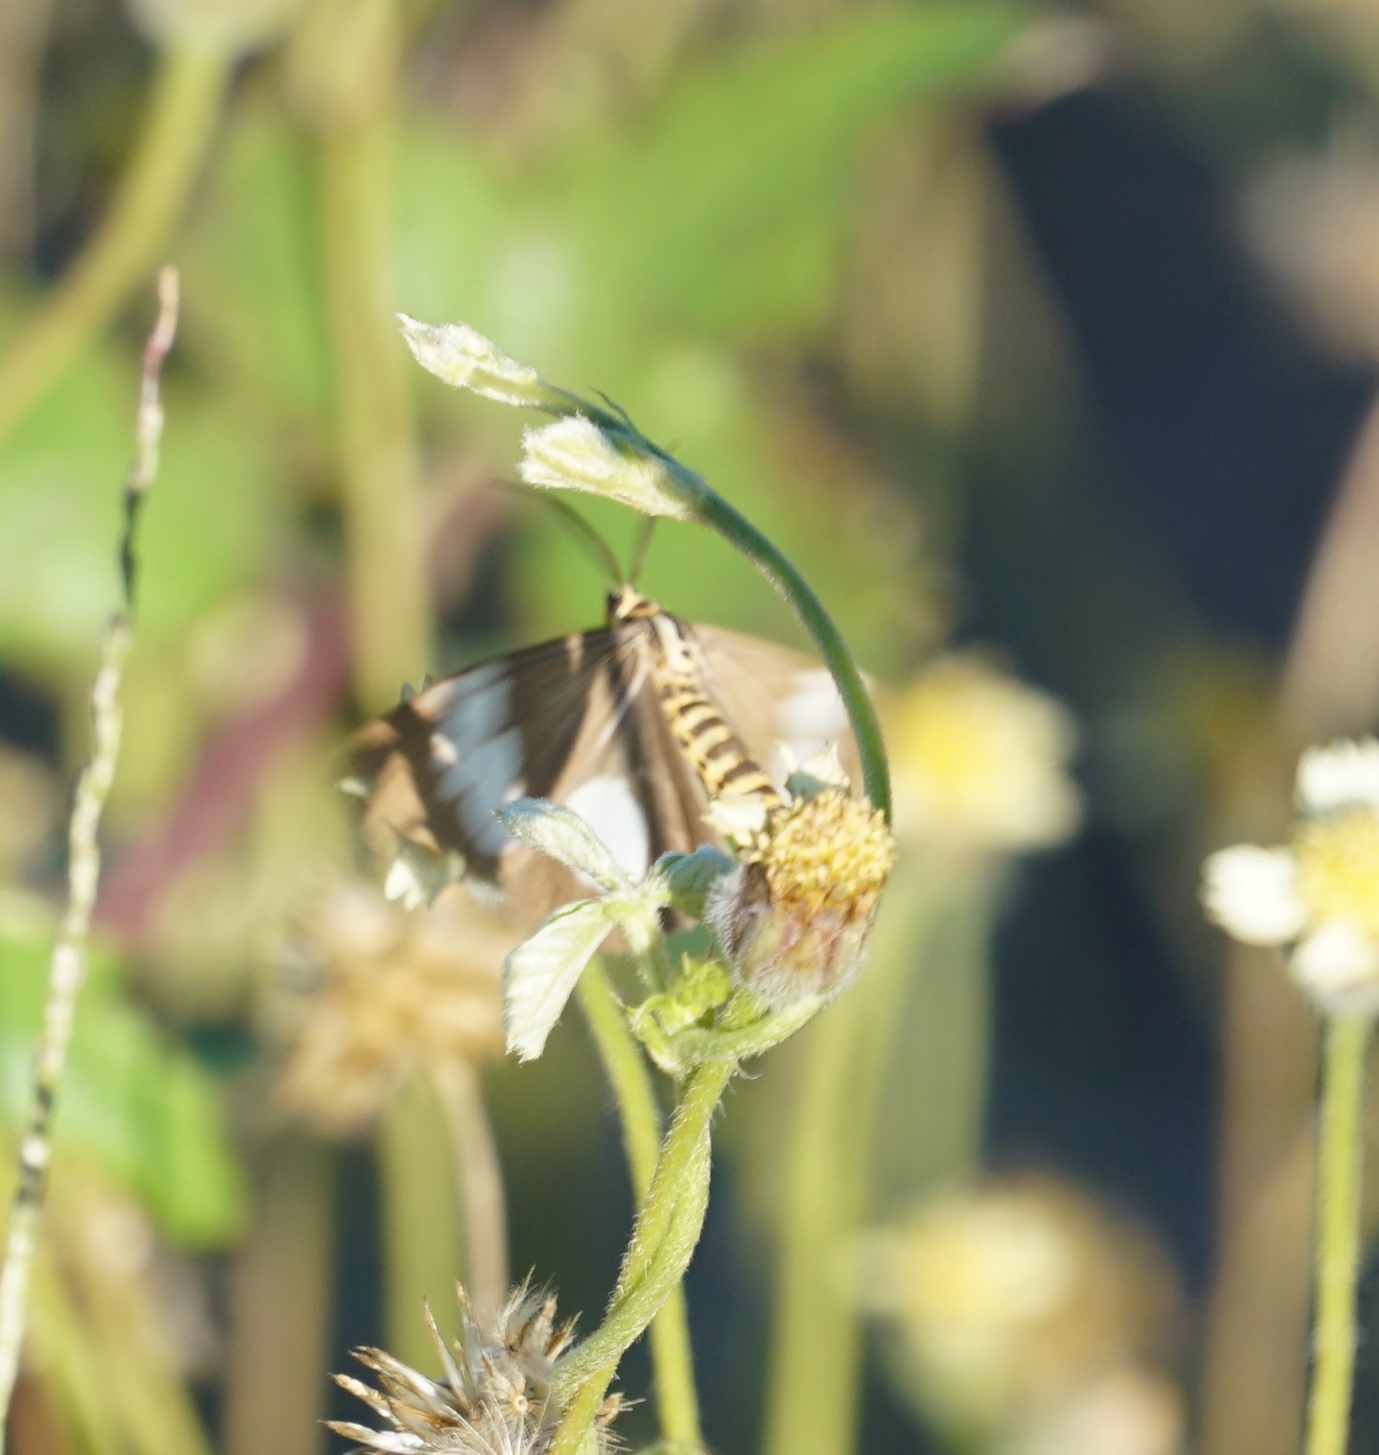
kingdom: Animalia
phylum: Arthropoda
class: Insecta
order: Lepidoptera
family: Erebidae
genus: Nyctemera
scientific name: Nyctemera baulus
